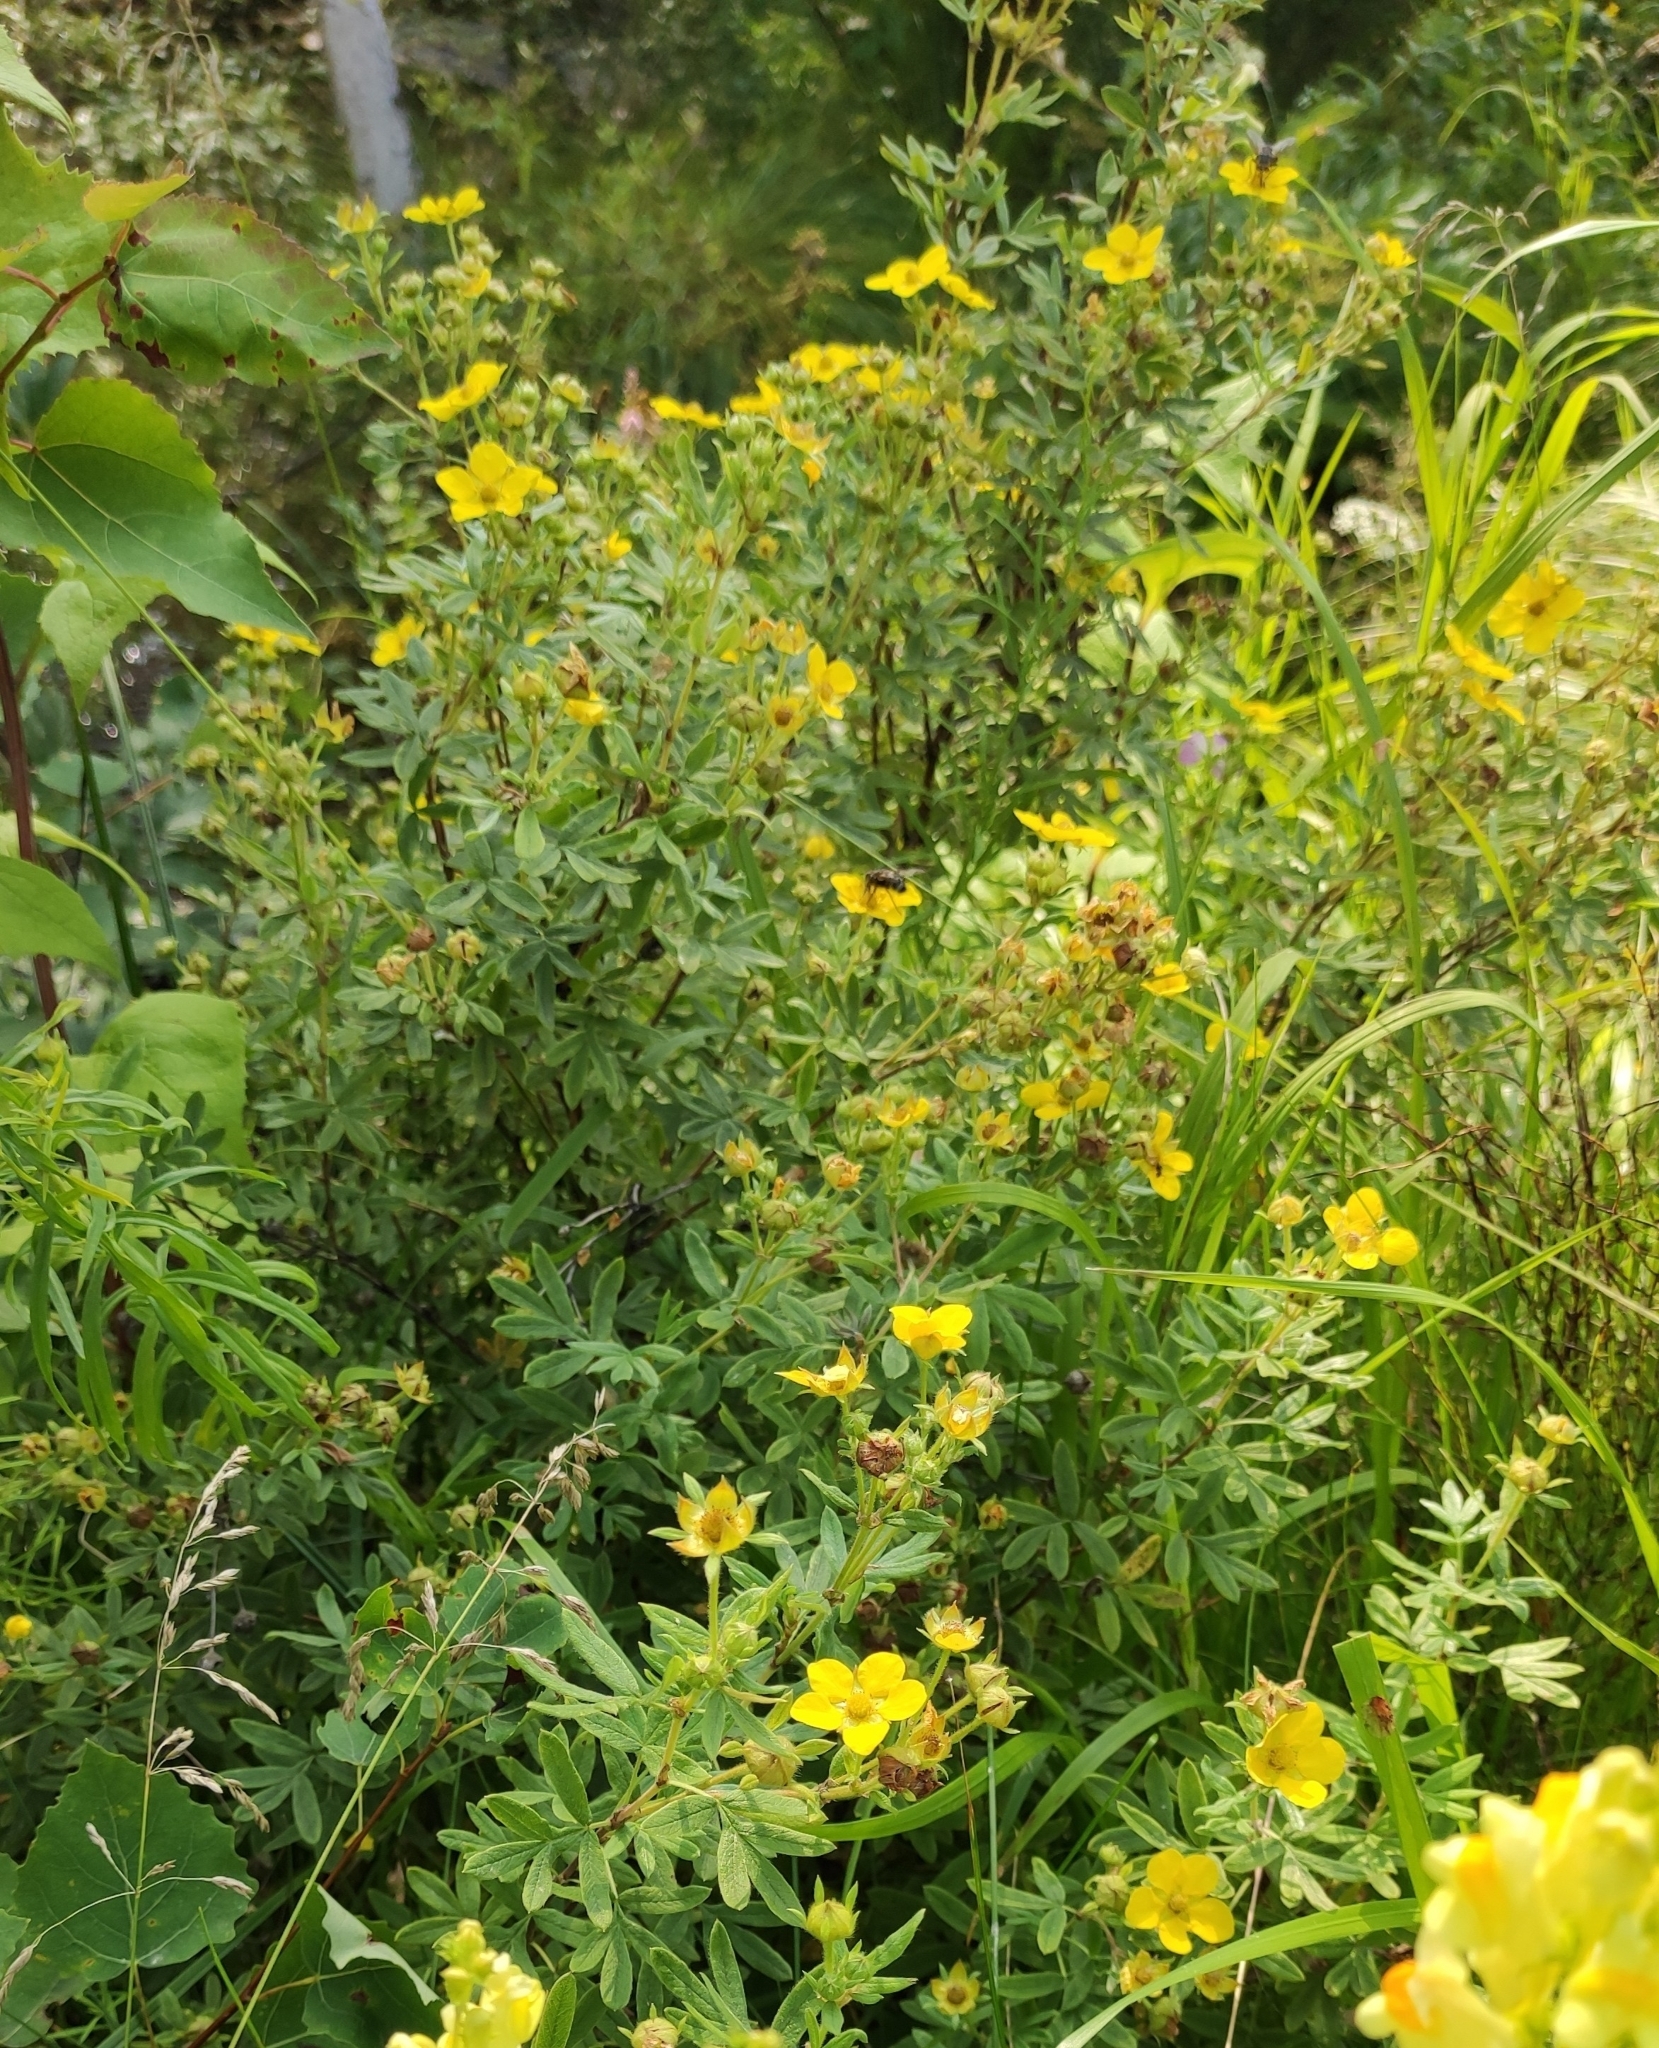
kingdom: Plantae
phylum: Tracheophyta
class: Magnoliopsida
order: Rosales
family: Rosaceae
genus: Dasiphora
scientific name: Dasiphora fruticosa
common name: Shrubby cinquefoil
